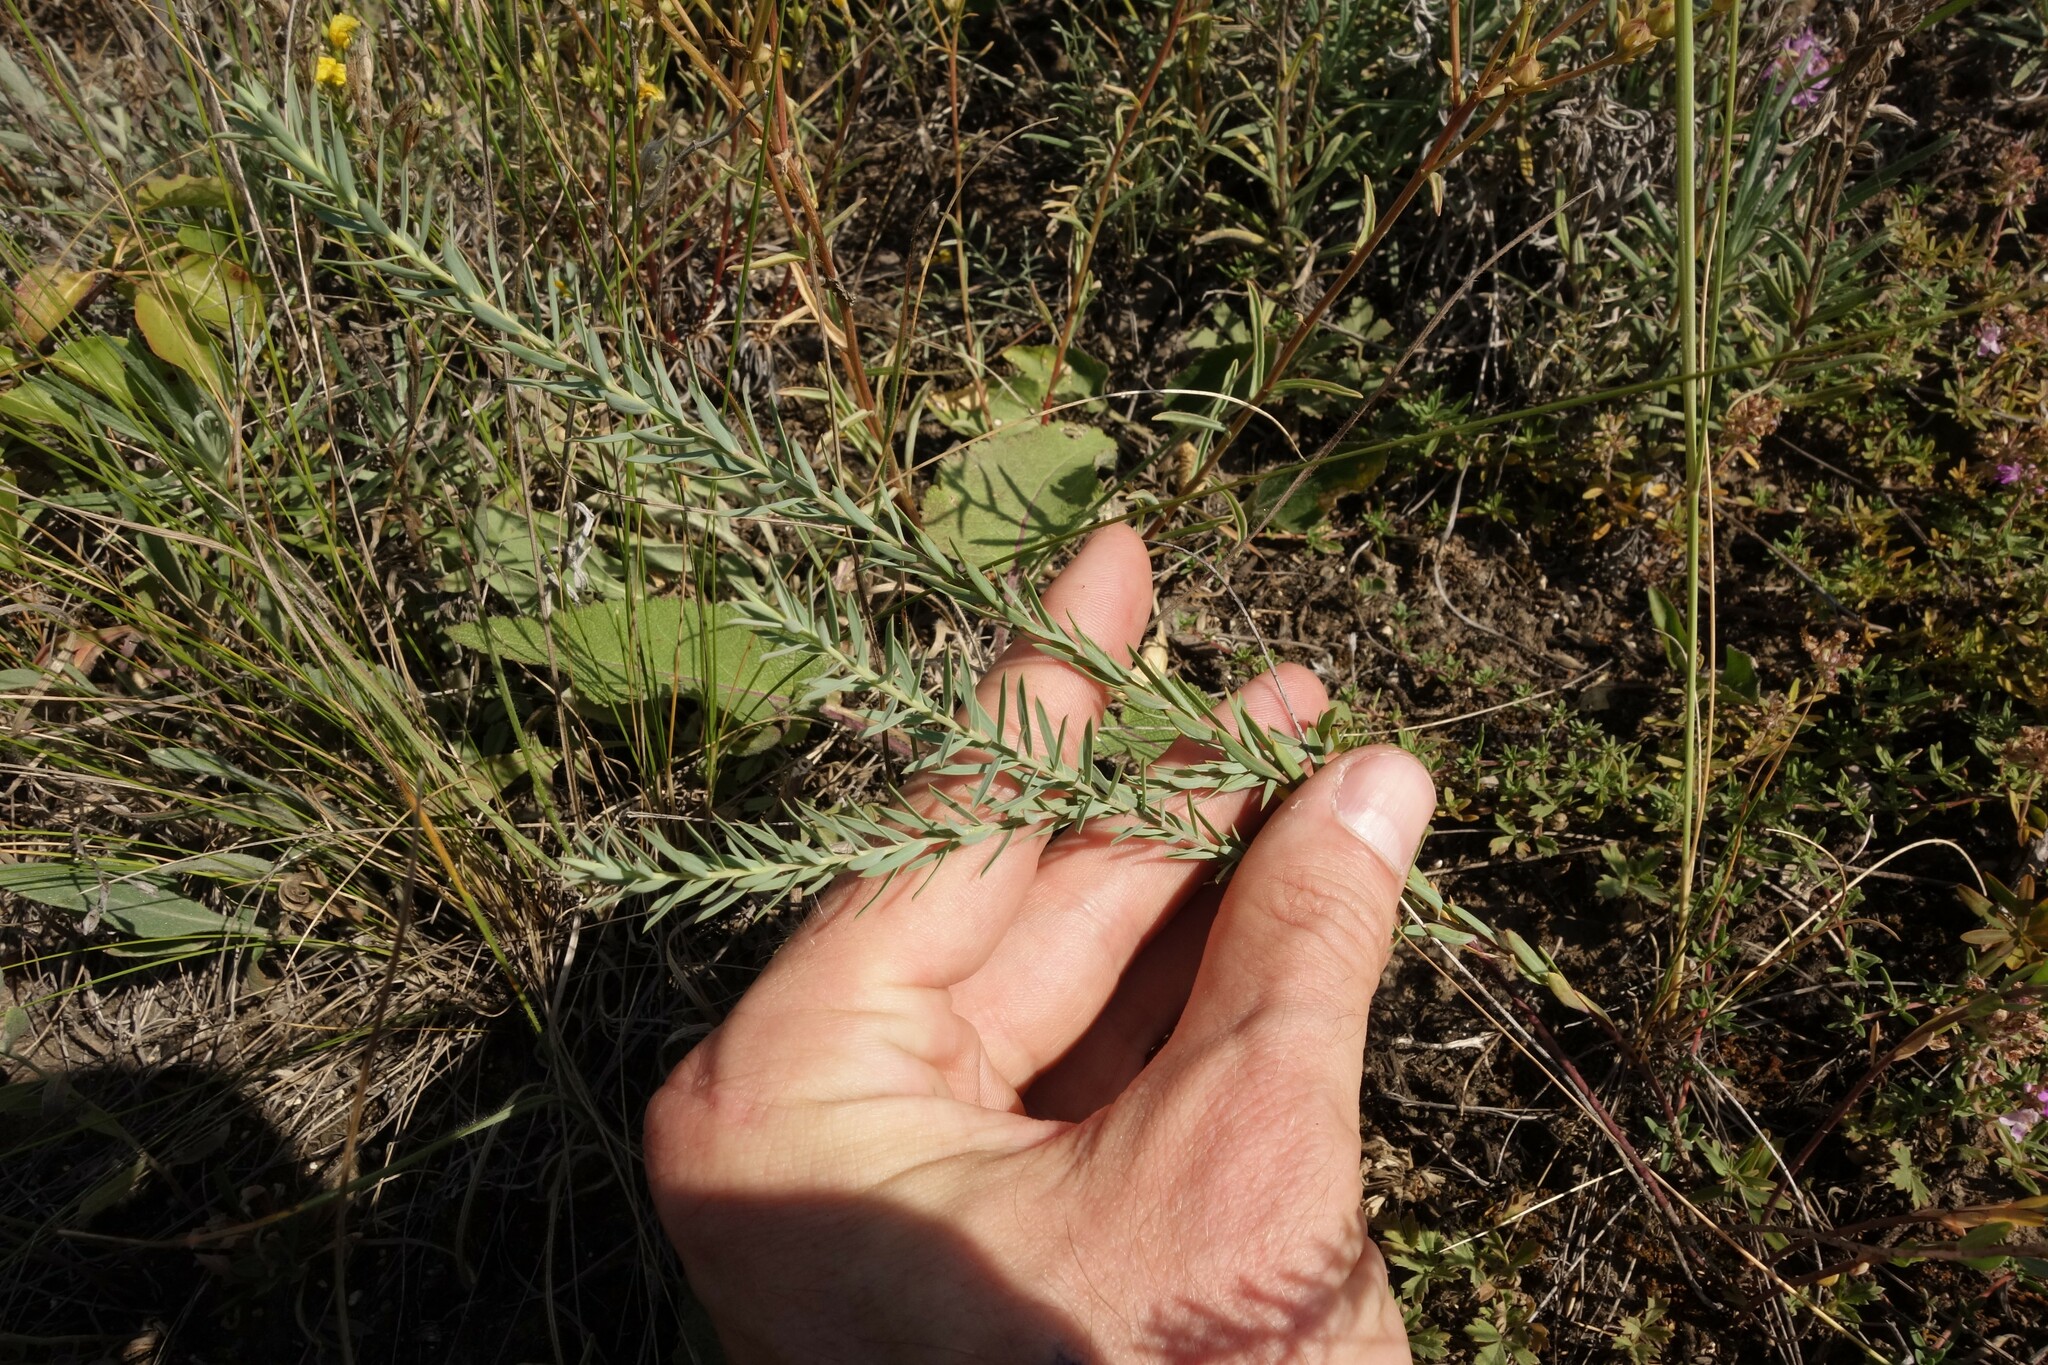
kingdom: Plantae
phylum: Tracheophyta
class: Magnoliopsida
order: Malpighiales
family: Euphorbiaceae
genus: Euphorbia
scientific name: Euphorbia seguieriana
